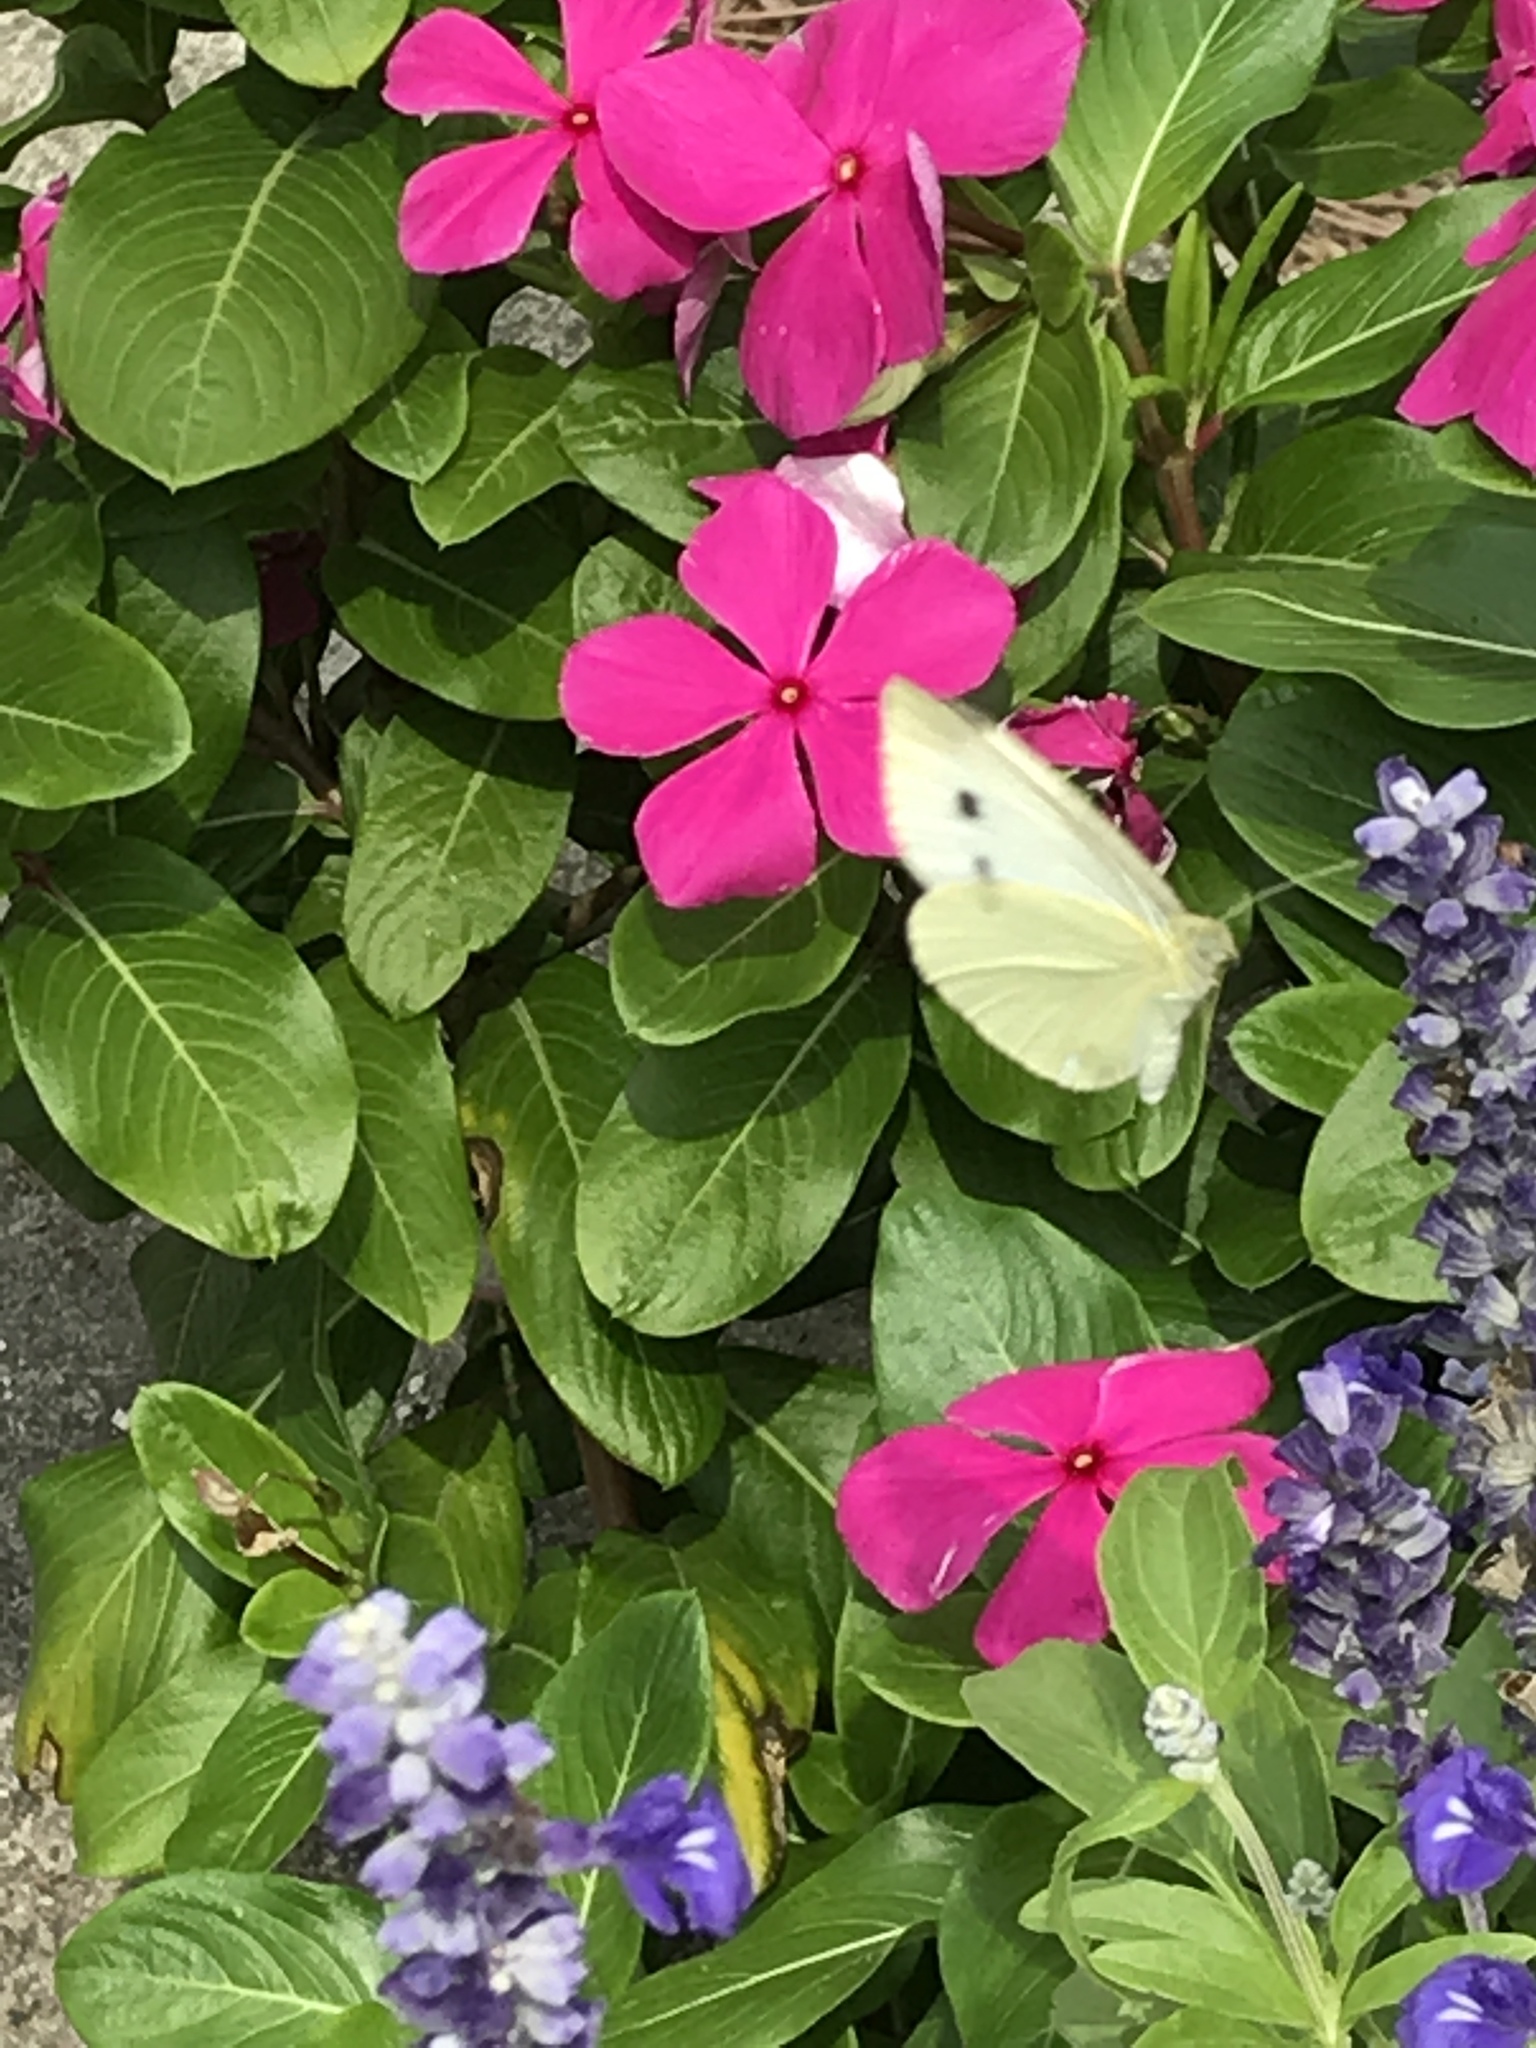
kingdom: Animalia
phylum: Arthropoda
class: Insecta
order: Lepidoptera
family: Pieridae
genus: Pieris
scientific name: Pieris rapae
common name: Small white
